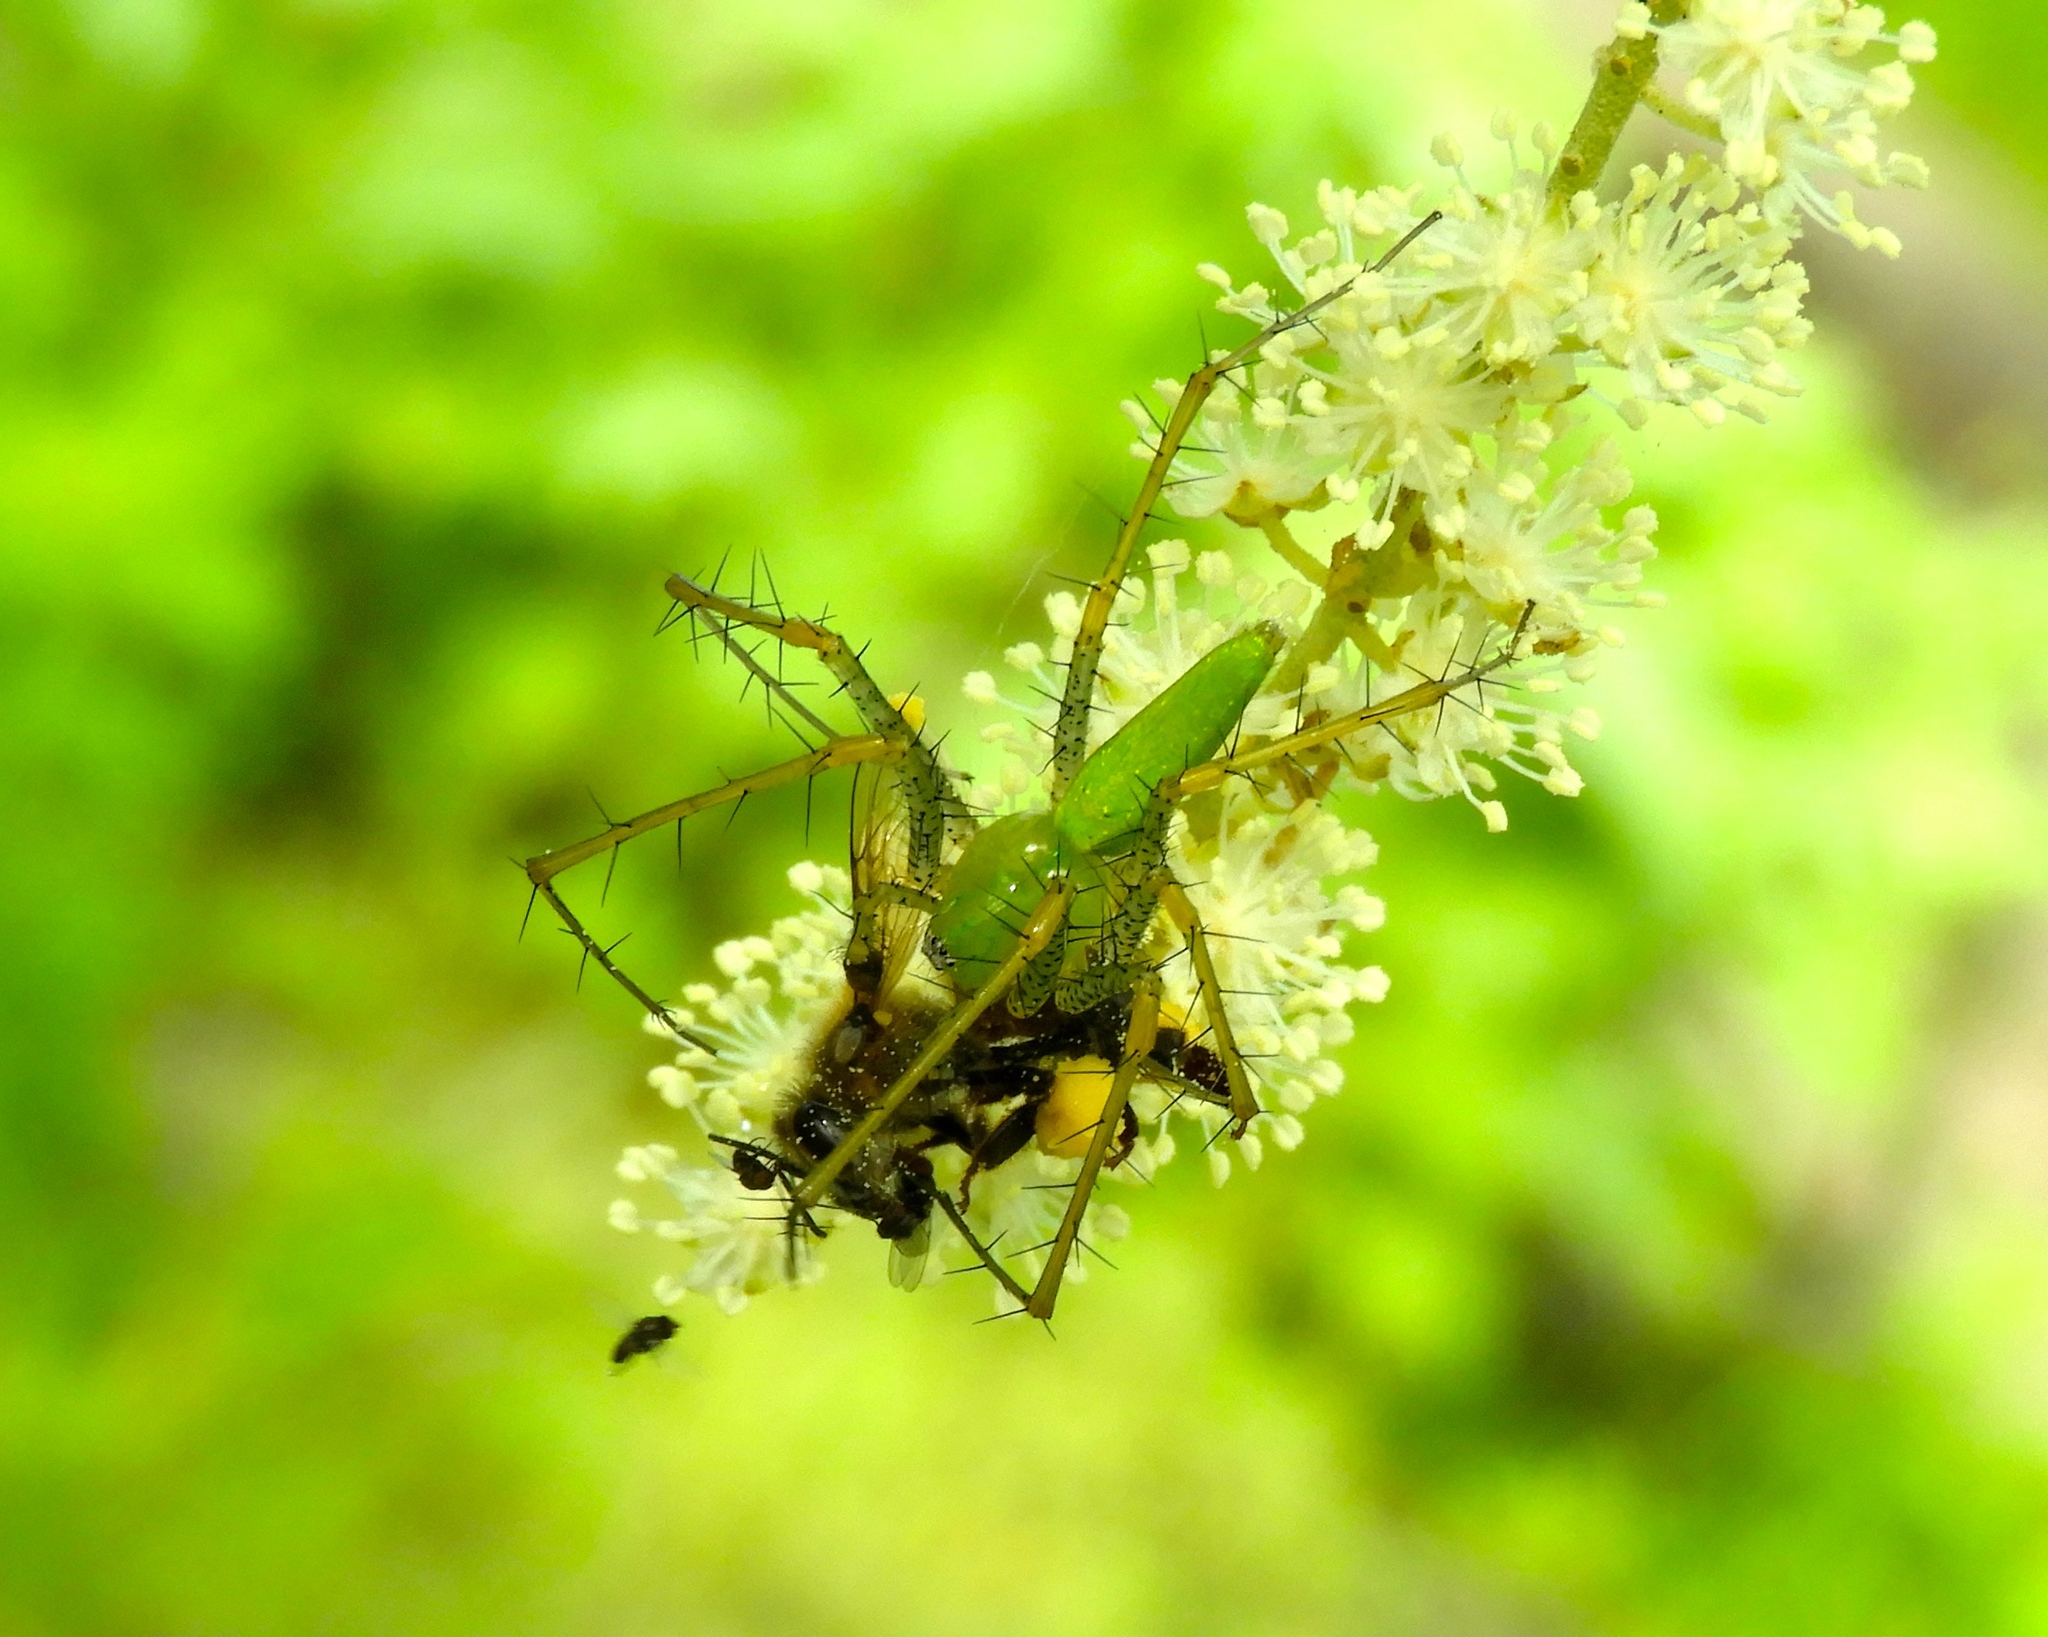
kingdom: Animalia
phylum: Arthropoda
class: Arachnida
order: Araneae
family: Oxyopidae
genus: Peucetia
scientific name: Peucetia
